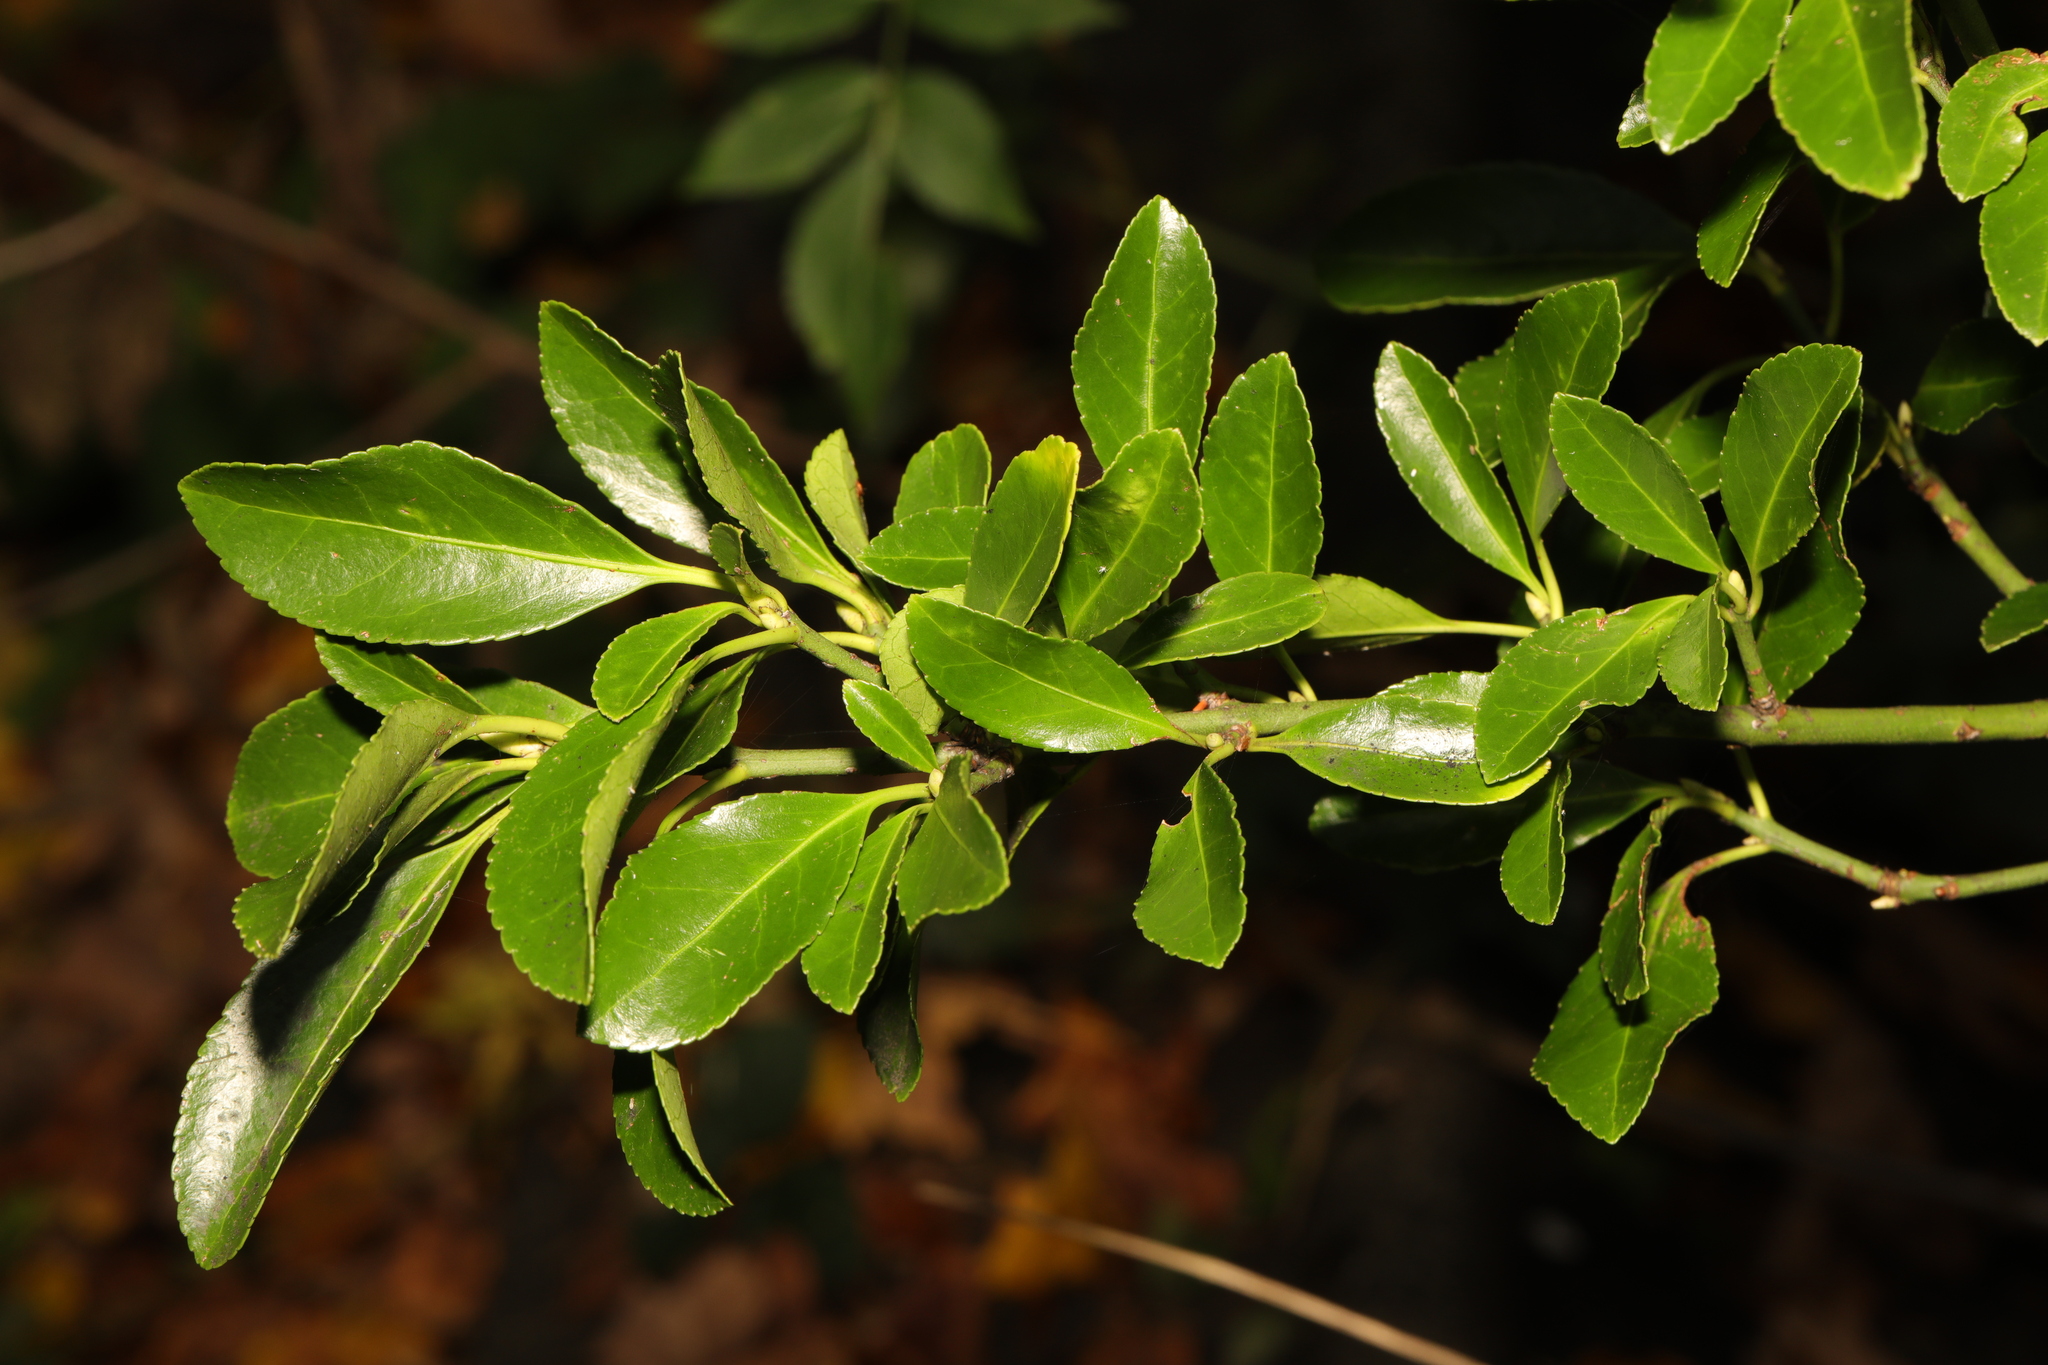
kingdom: Plantae
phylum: Tracheophyta
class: Magnoliopsida
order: Celastrales
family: Celastraceae
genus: Euonymus
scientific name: Euonymus japonicus
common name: Japanese spindletree
